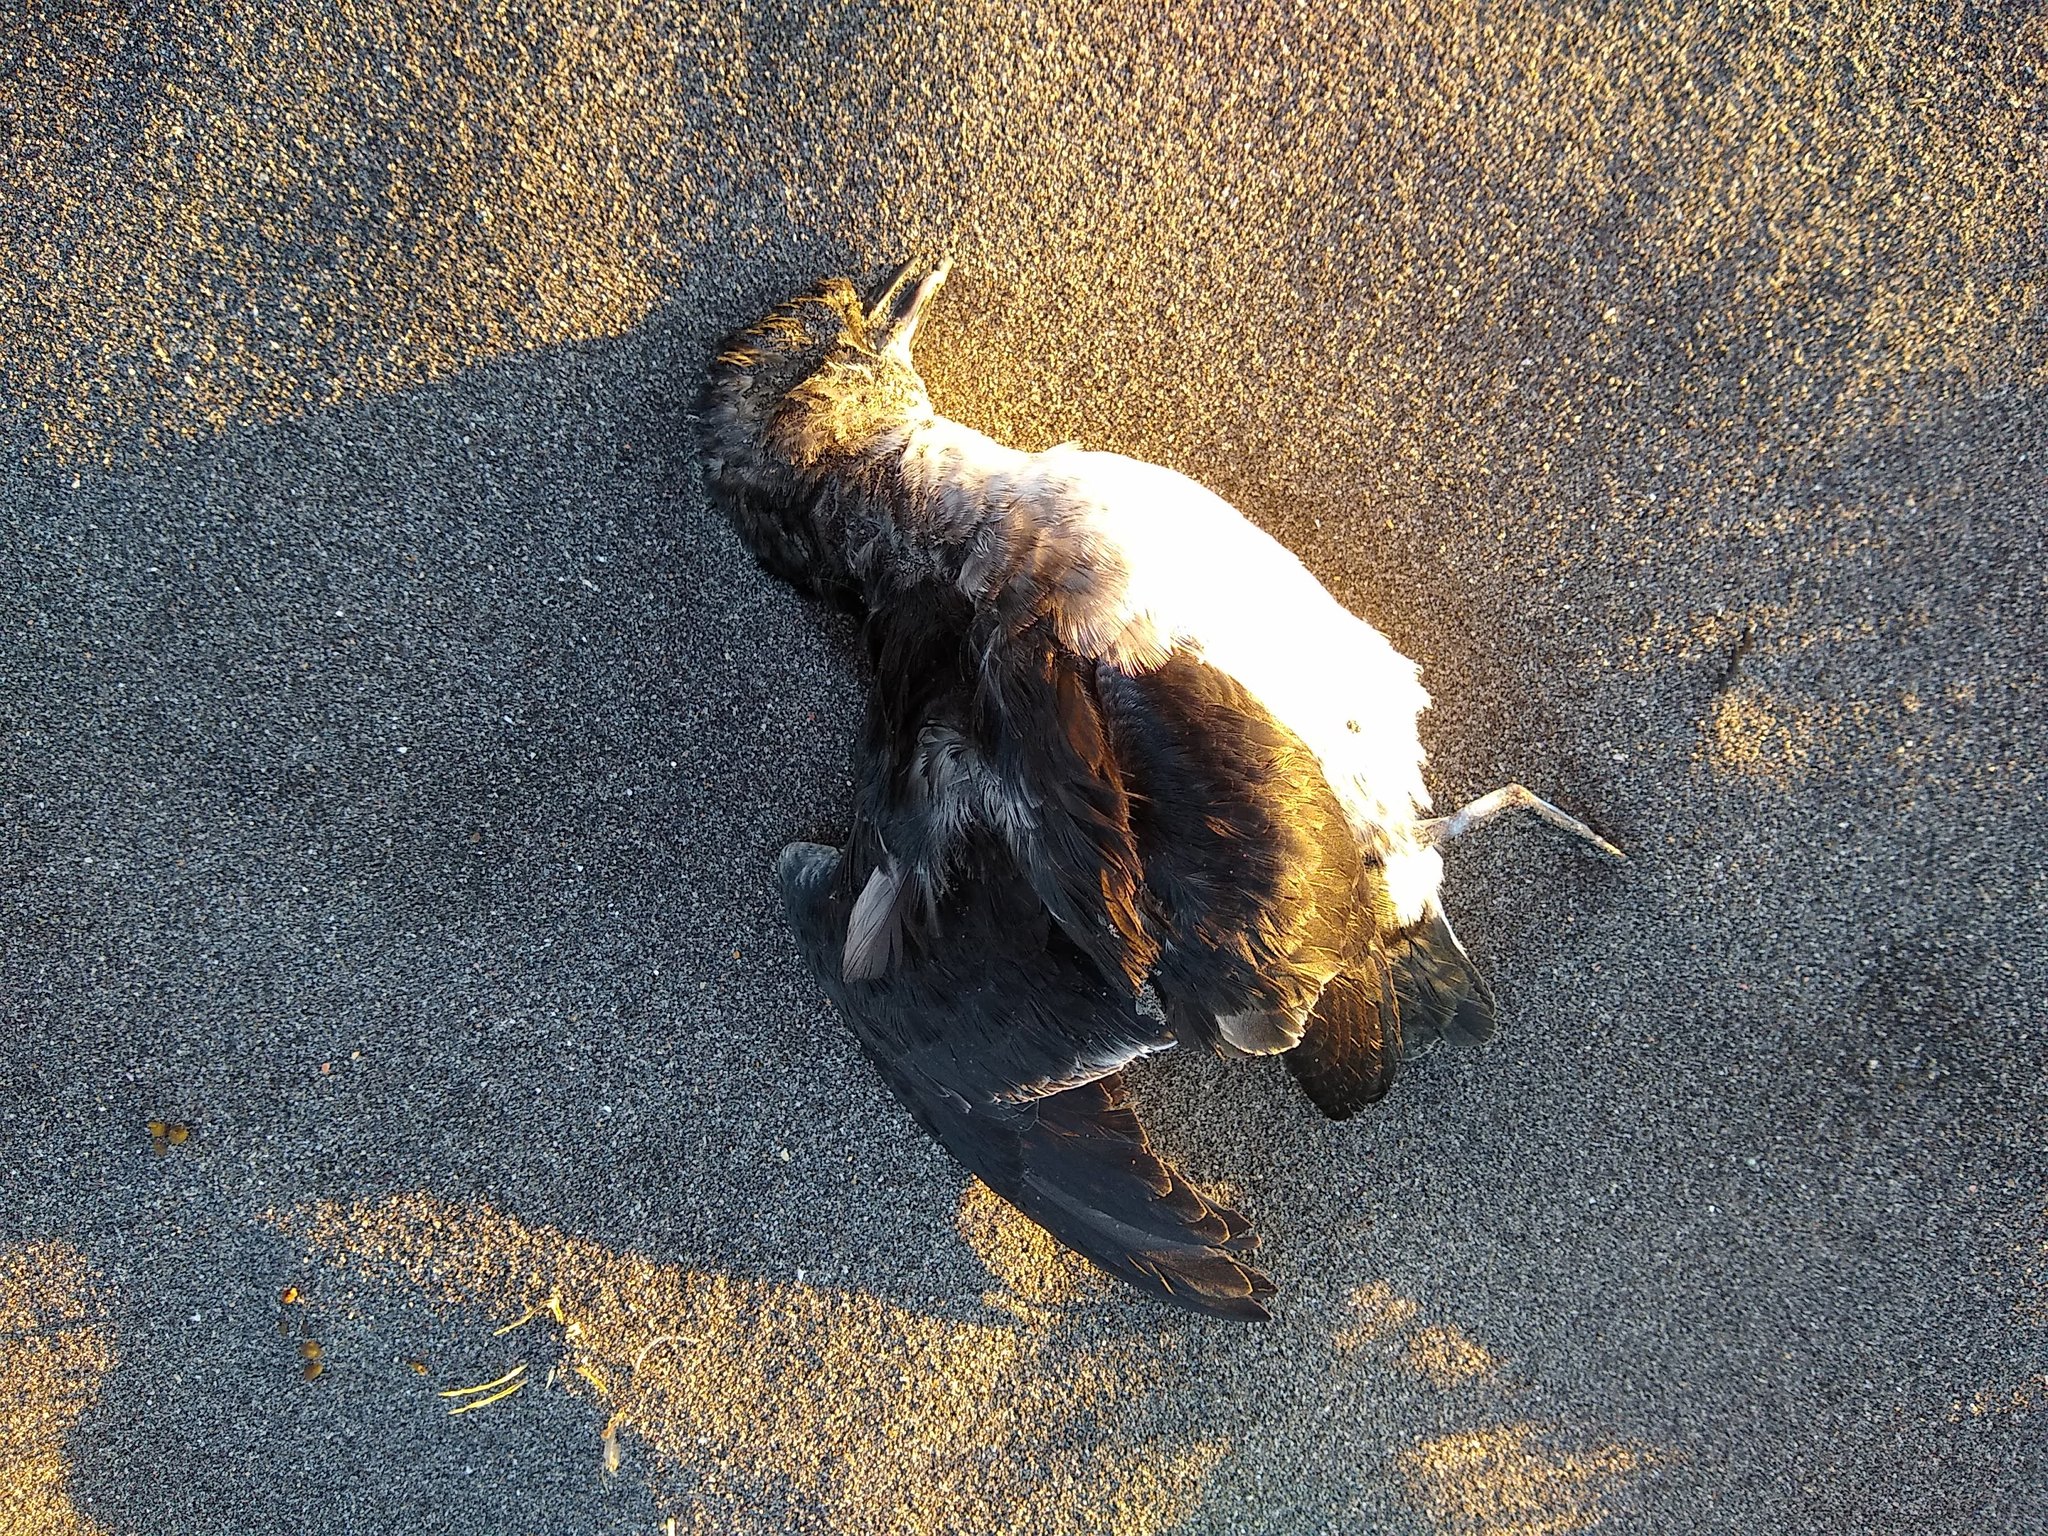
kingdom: Animalia
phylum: Chordata
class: Aves
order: Procellariiformes
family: Pelecanoididae
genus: Pelecanoides
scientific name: Pelecanoides urinatrix
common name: Common diving-petrel
